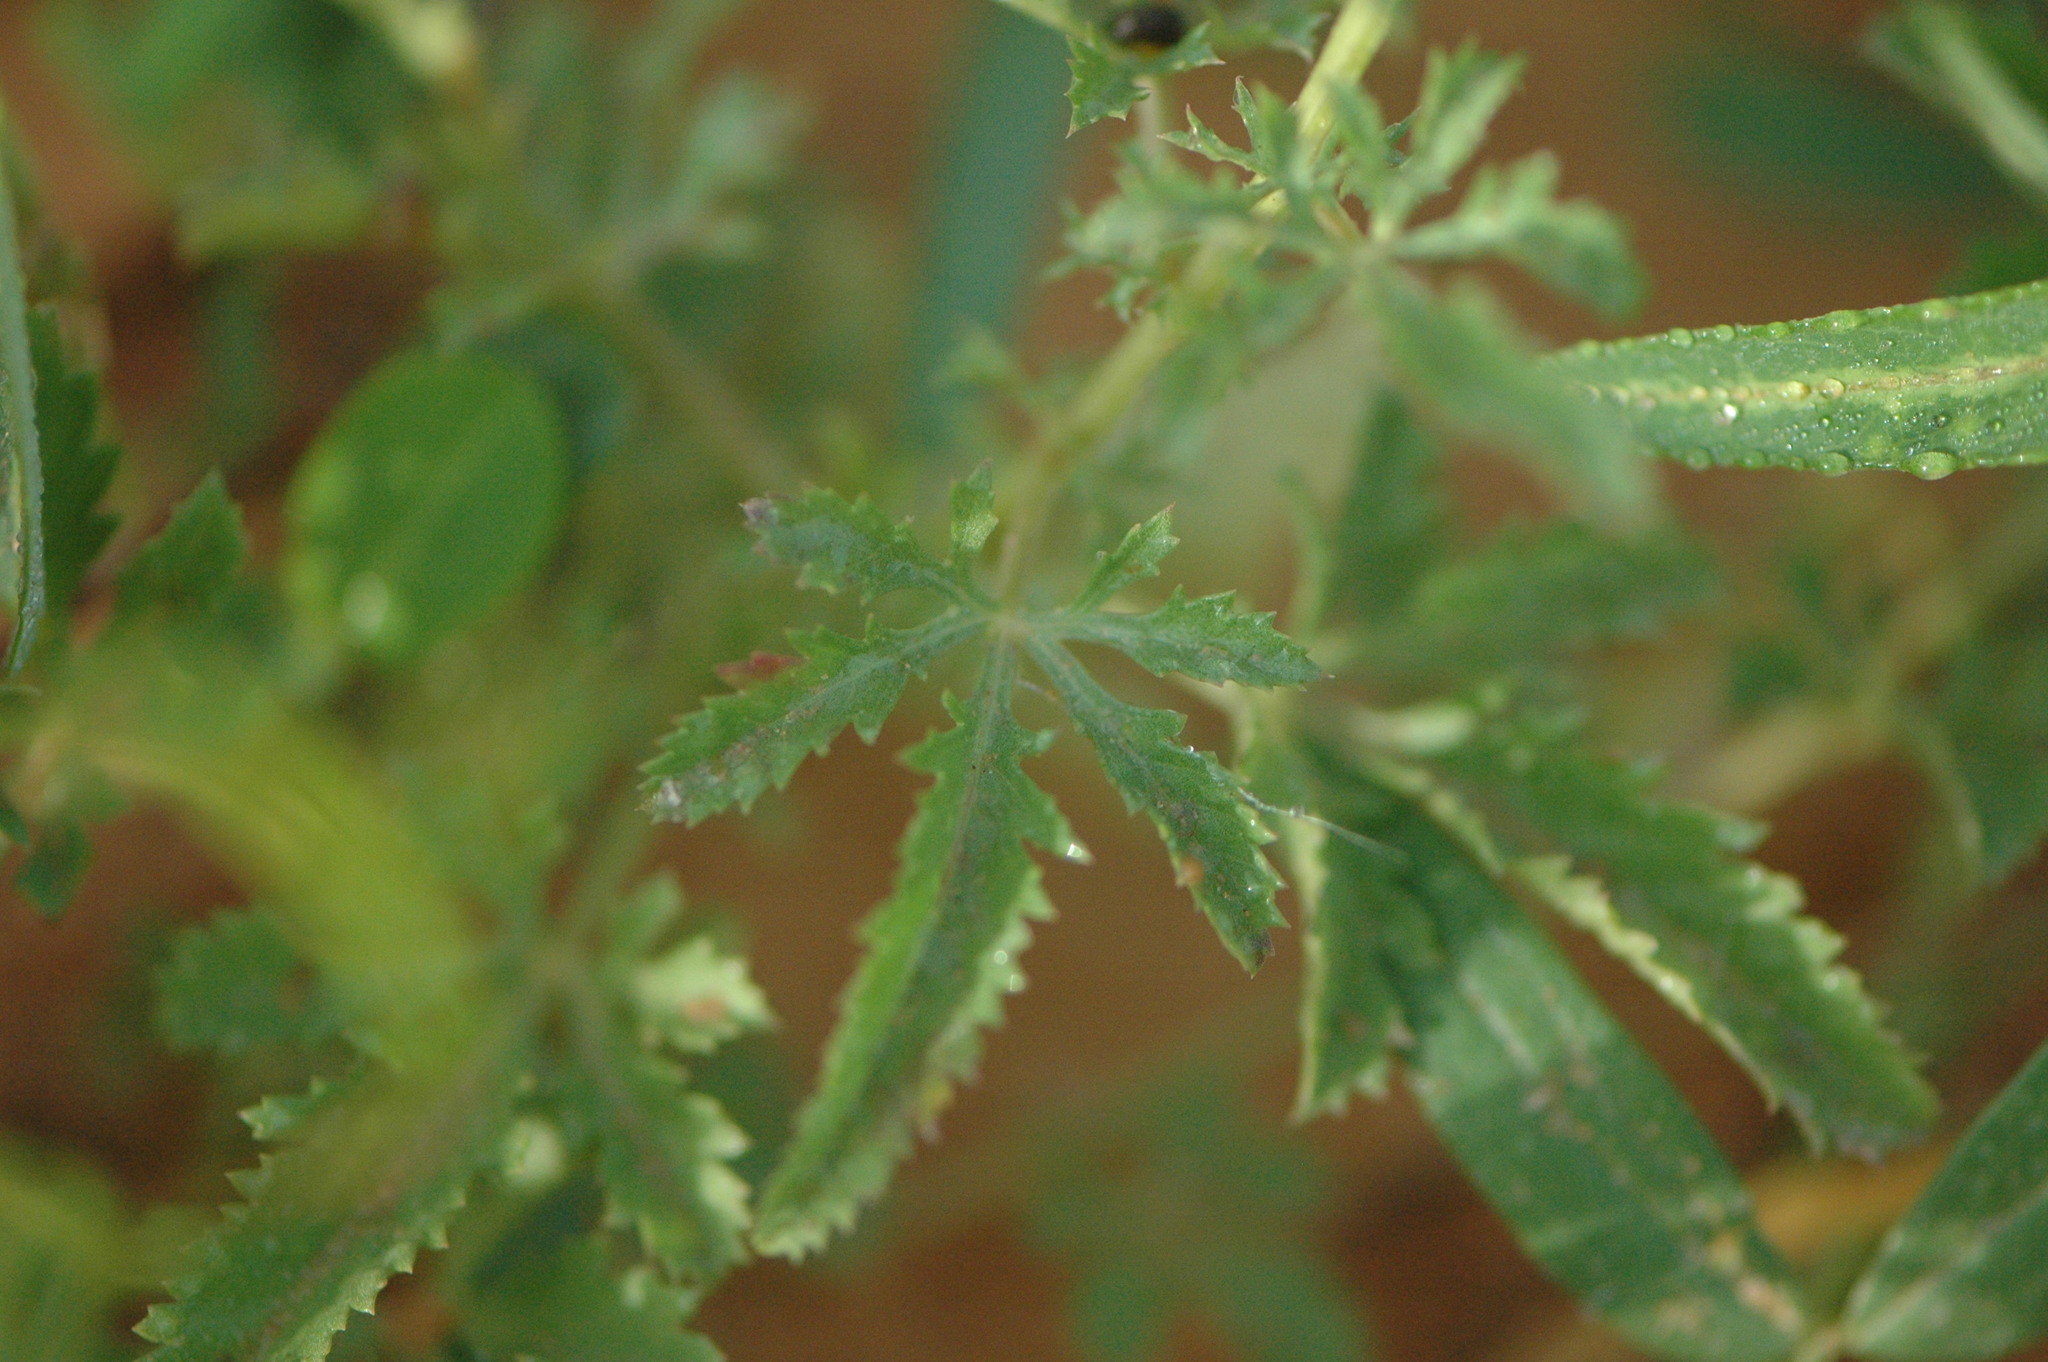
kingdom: Plantae
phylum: Tracheophyta
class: Magnoliopsida
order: Solanales
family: Convolvulaceae
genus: Ipomoea
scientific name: Ipomoea coptica
